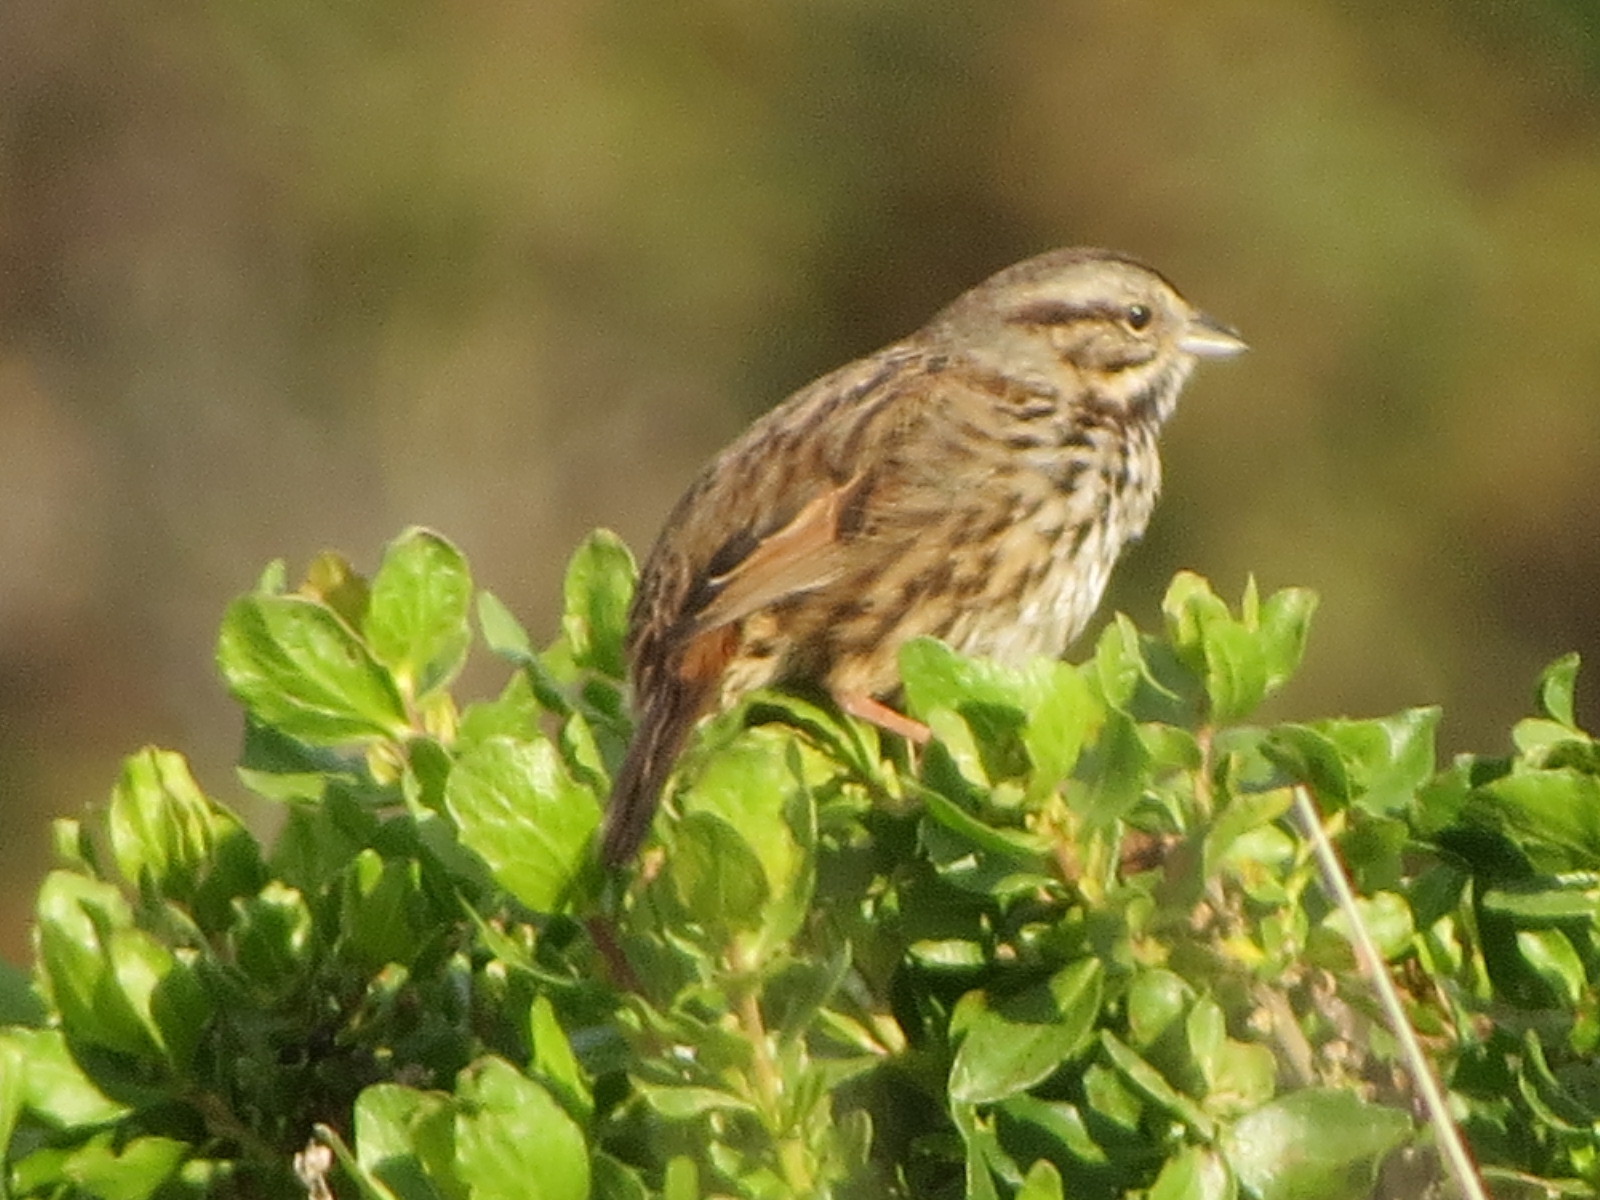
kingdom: Animalia
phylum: Chordata
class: Aves
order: Passeriformes
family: Passerellidae
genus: Melospiza
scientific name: Melospiza melodia
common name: Song sparrow
